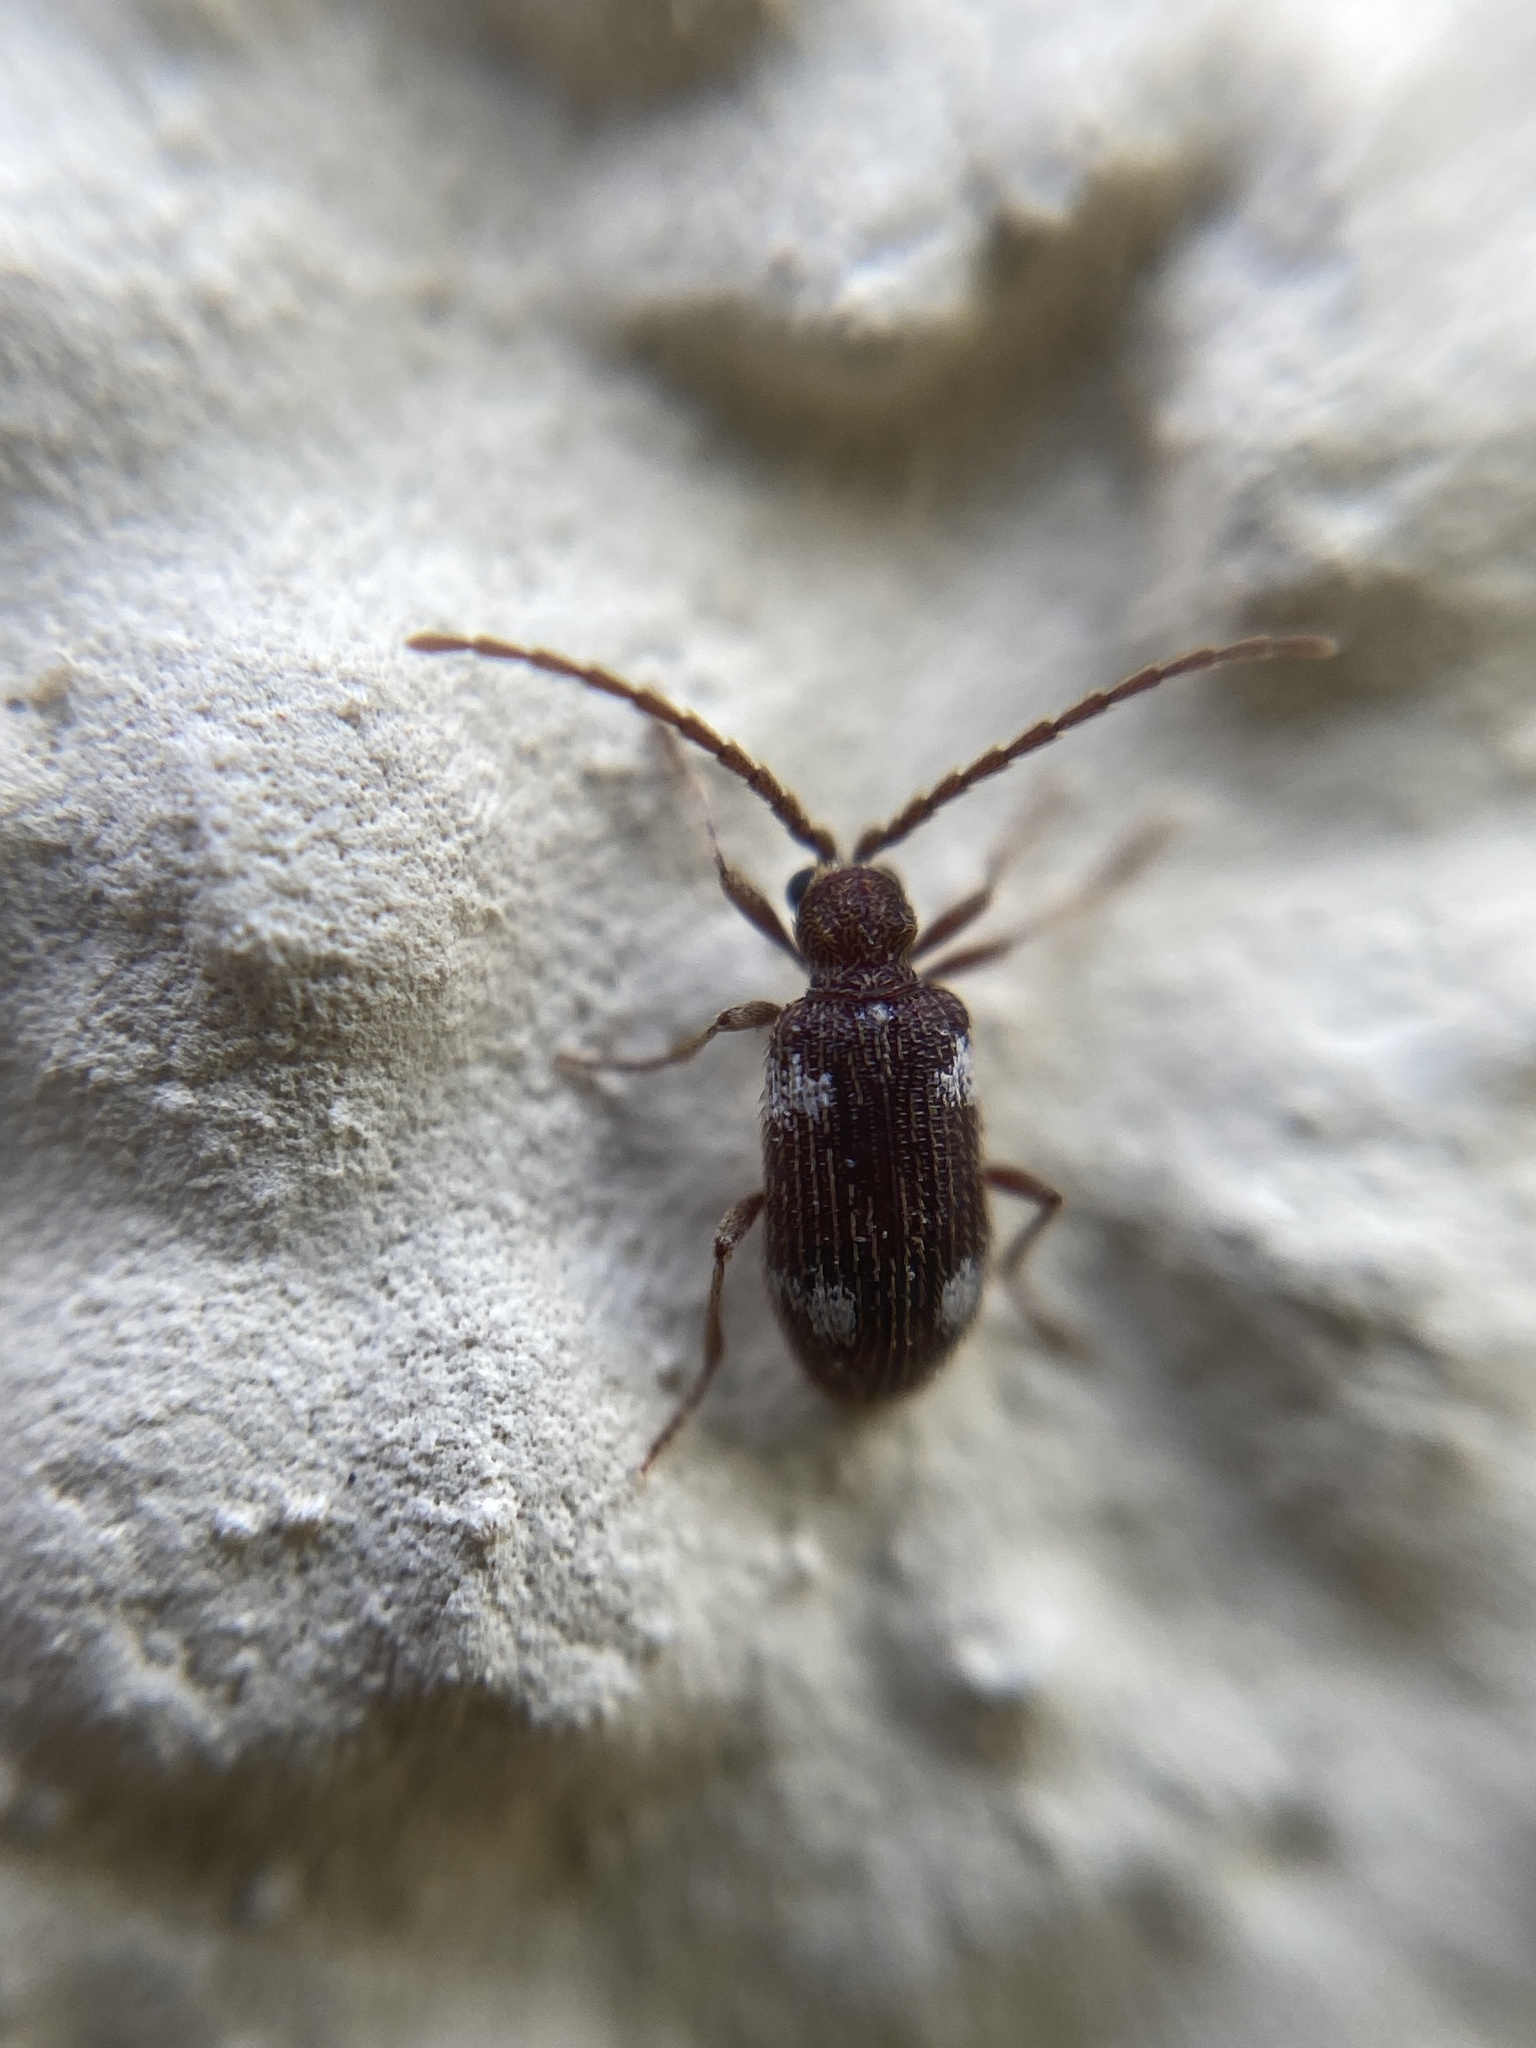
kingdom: Animalia
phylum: Arthropoda
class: Insecta
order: Coleoptera
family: Ptinidae
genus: Ptinus
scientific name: Ptinus sexpunctatus
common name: Six-spotted spider beetle
